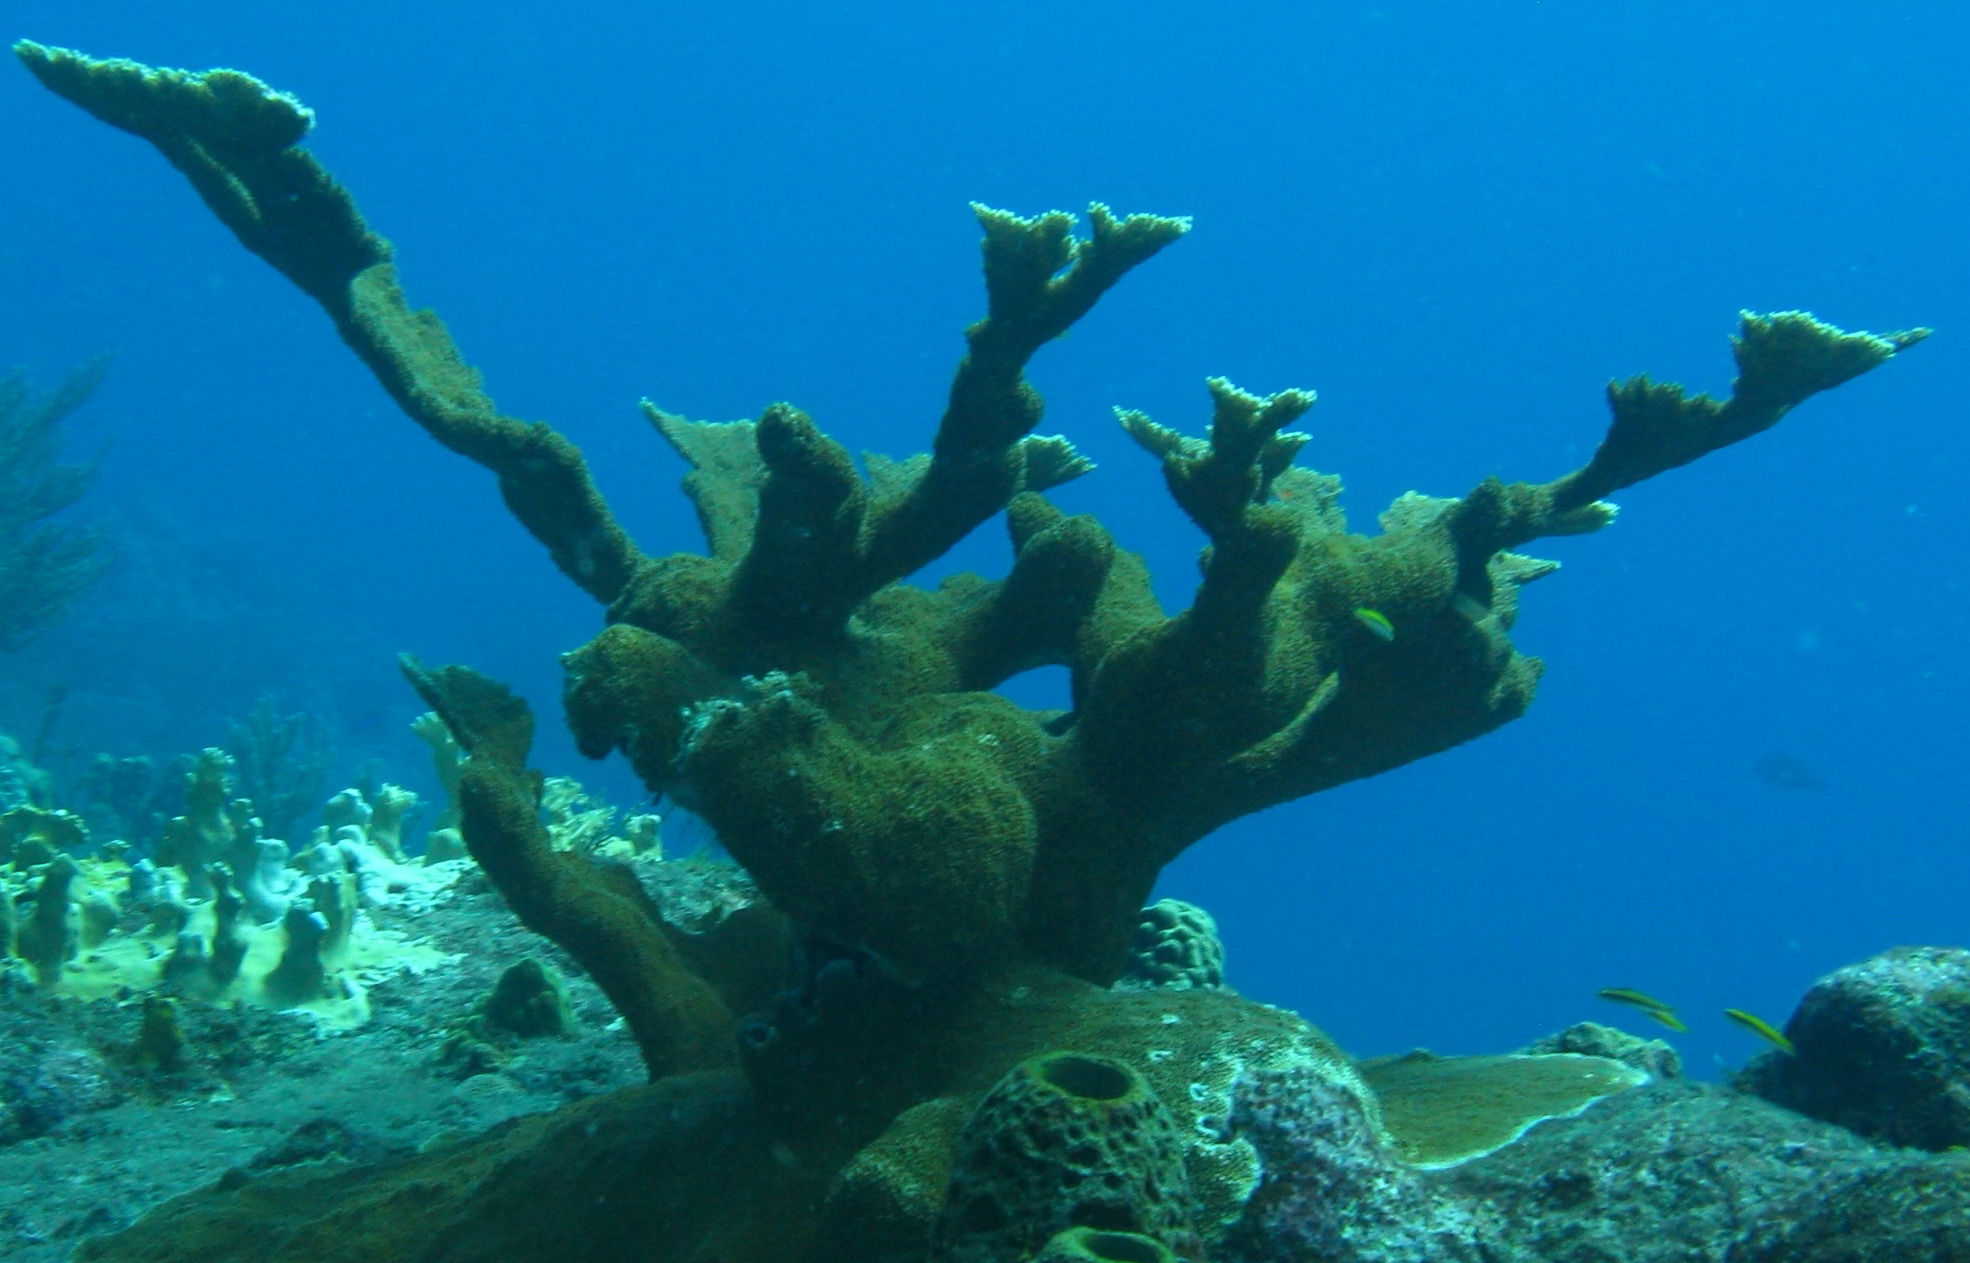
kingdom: Animalia
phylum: Cnidaria
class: Anthozoa
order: Scleractinia
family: Acroporidae
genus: Acropora
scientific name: Acropora palmata
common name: Elkhorn coral
